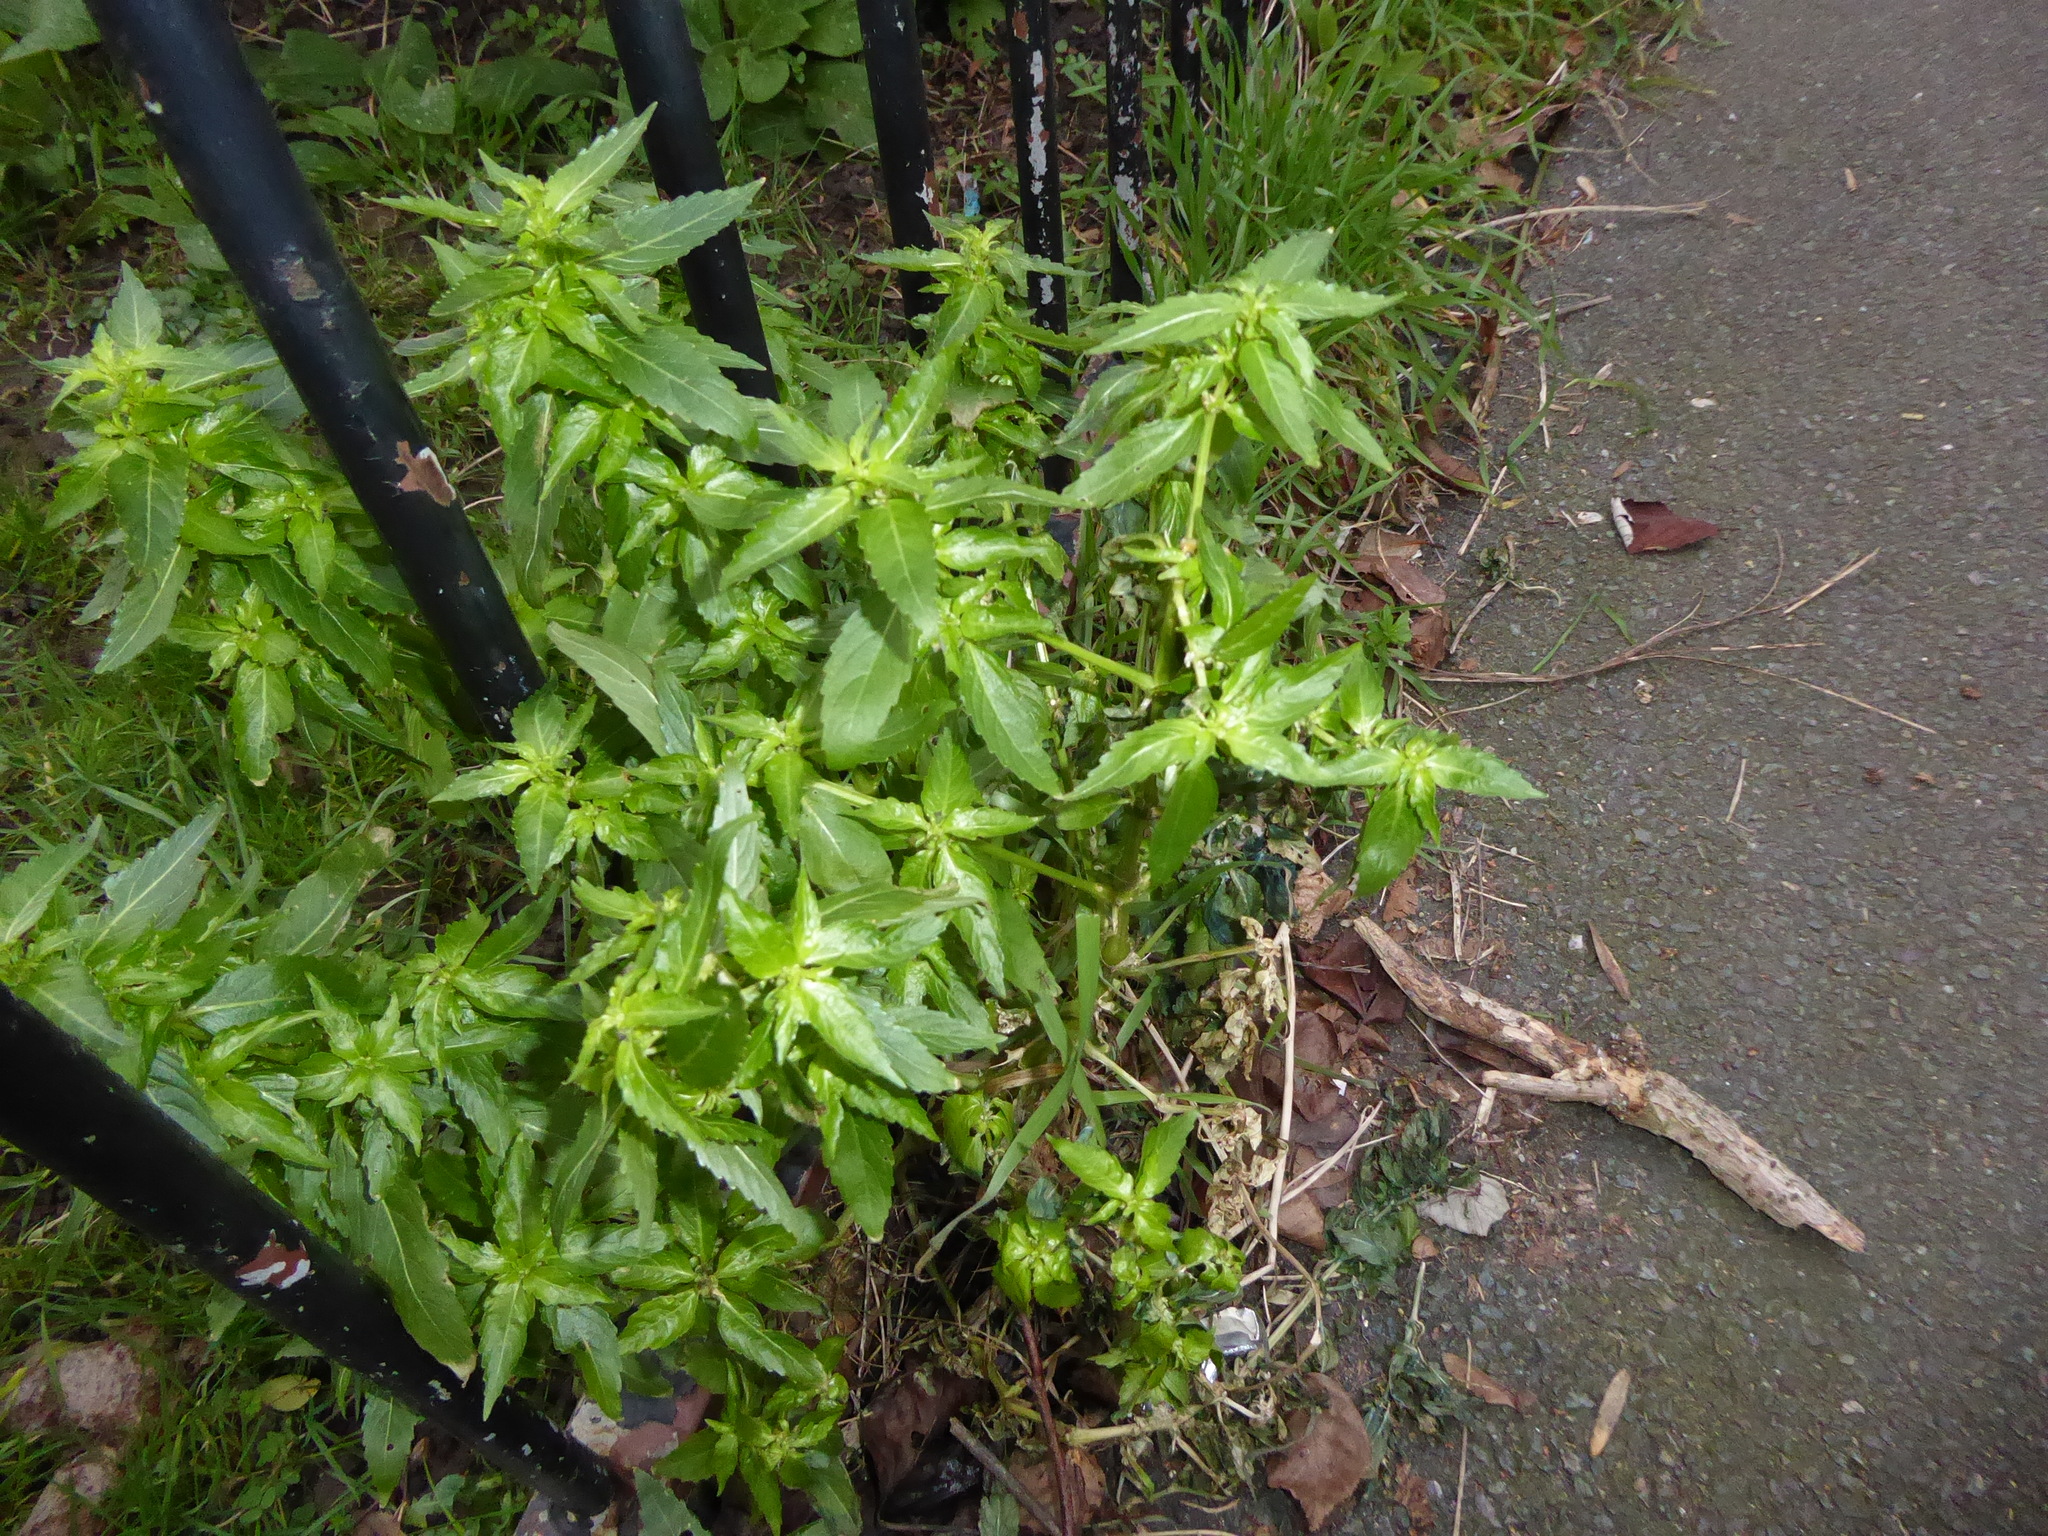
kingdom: Plantae
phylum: Tracheophyta
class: Magnoliopsida
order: Malpighiales
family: Euphorbiaceae
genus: Mercurialis
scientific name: Mercurialis annua
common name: Annual mercury
